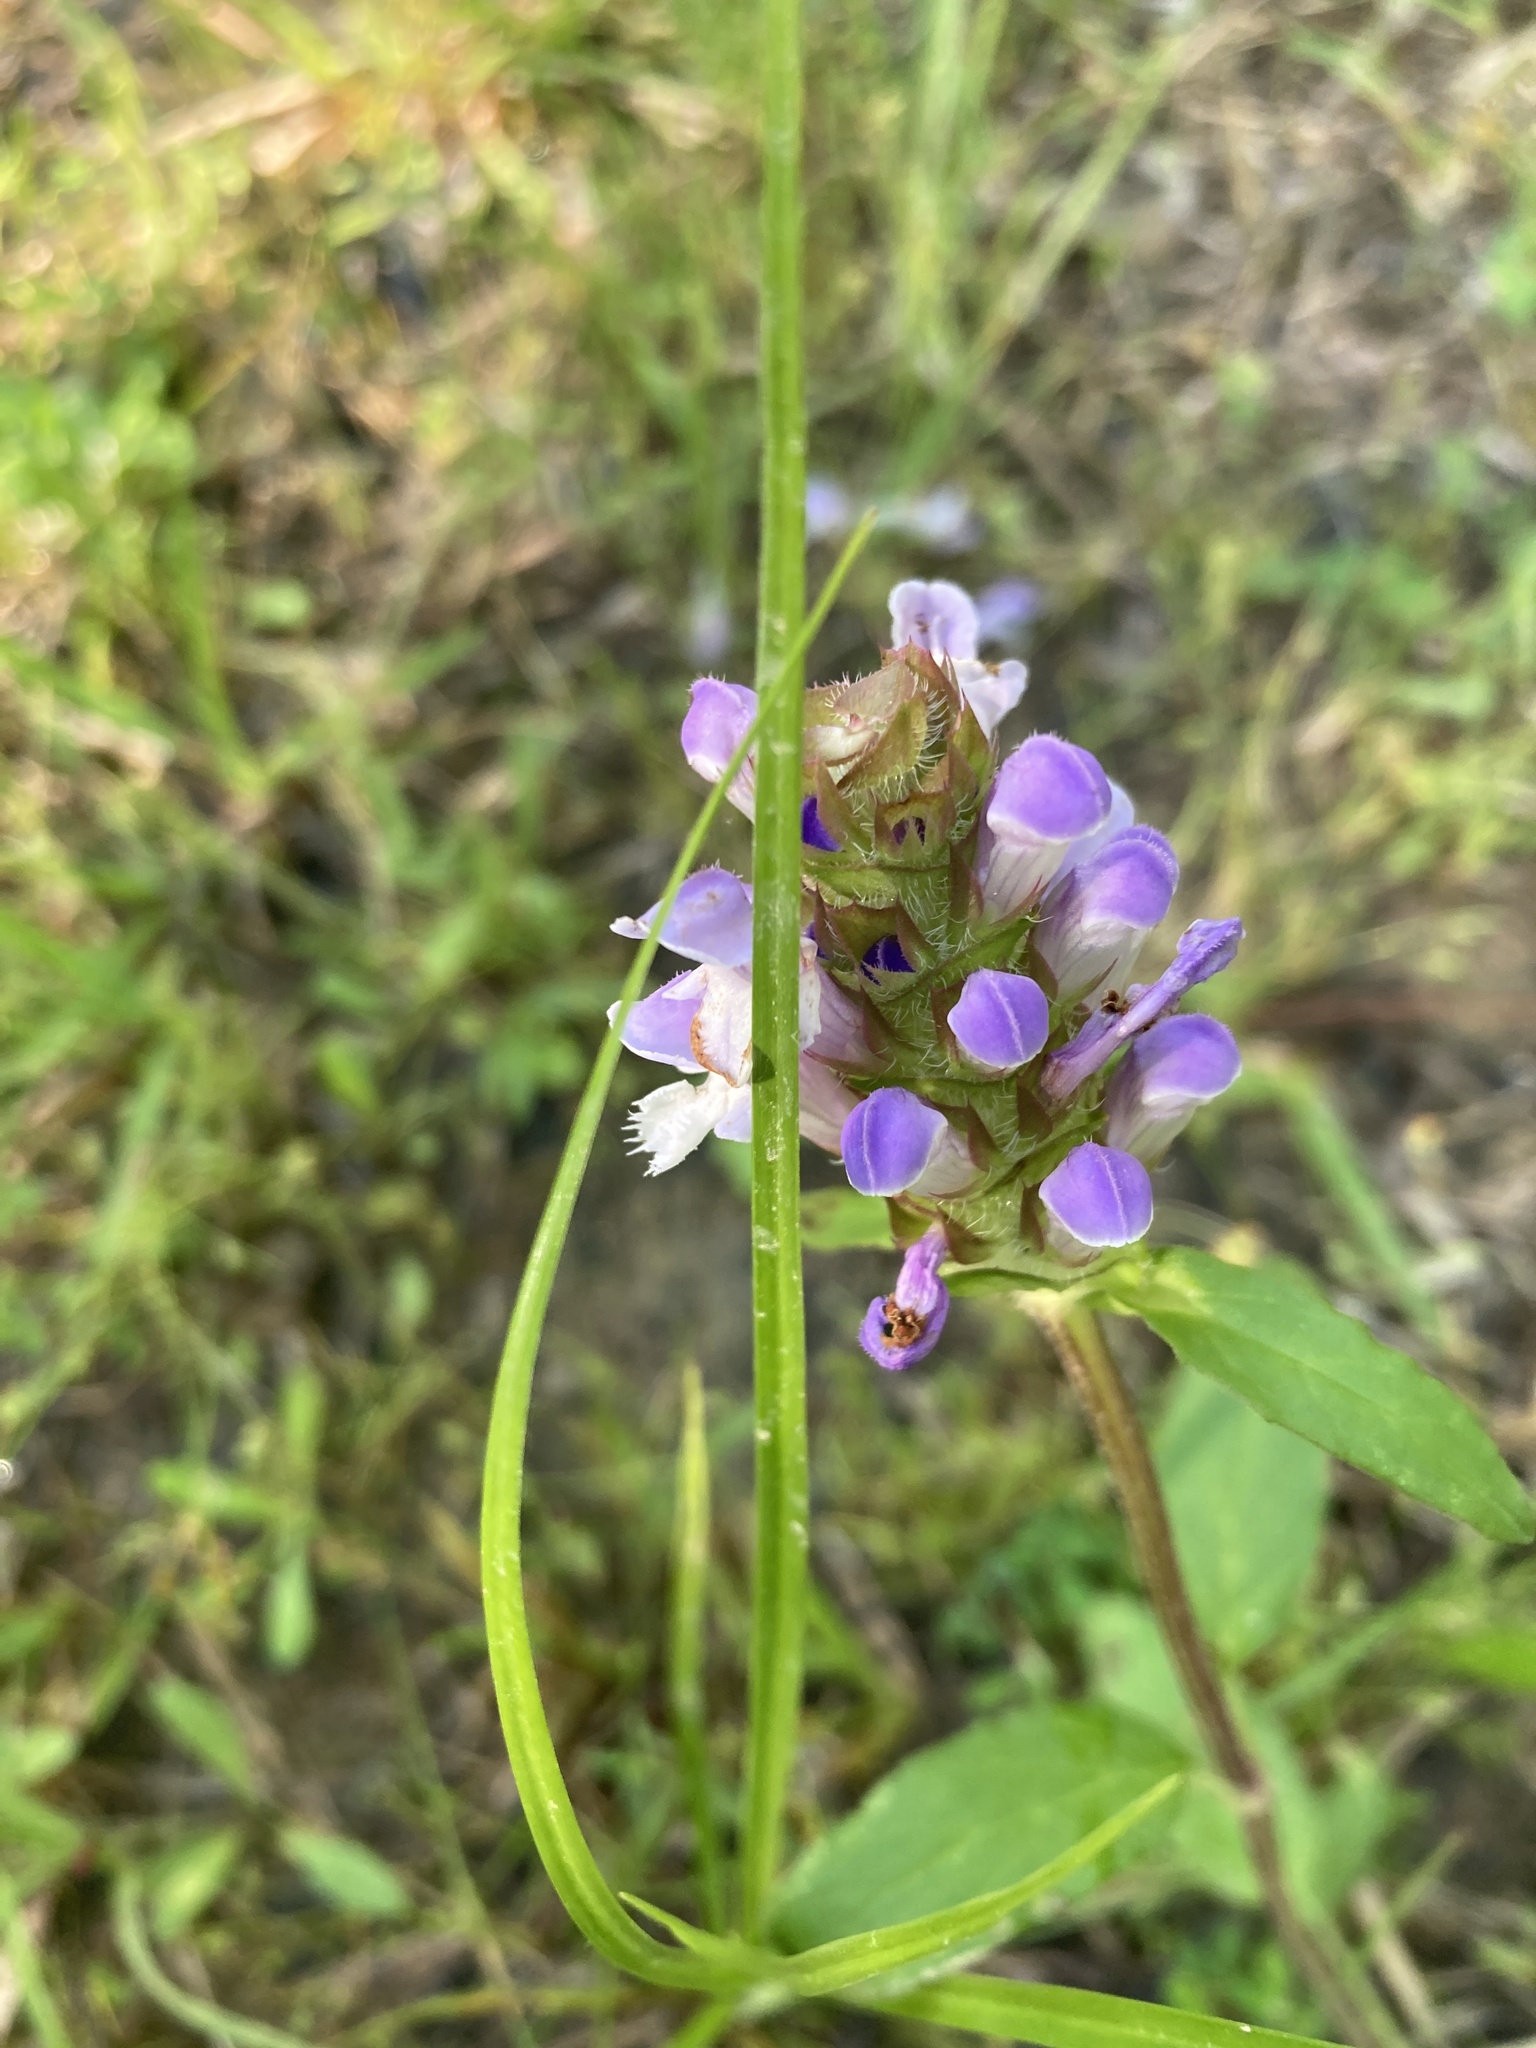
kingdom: Plantae
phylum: Tracheophyta
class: Magnoliopsida
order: Lamiales
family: Lamiaceae
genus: Prunella
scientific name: Prunella vulgaris
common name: Heal-all
